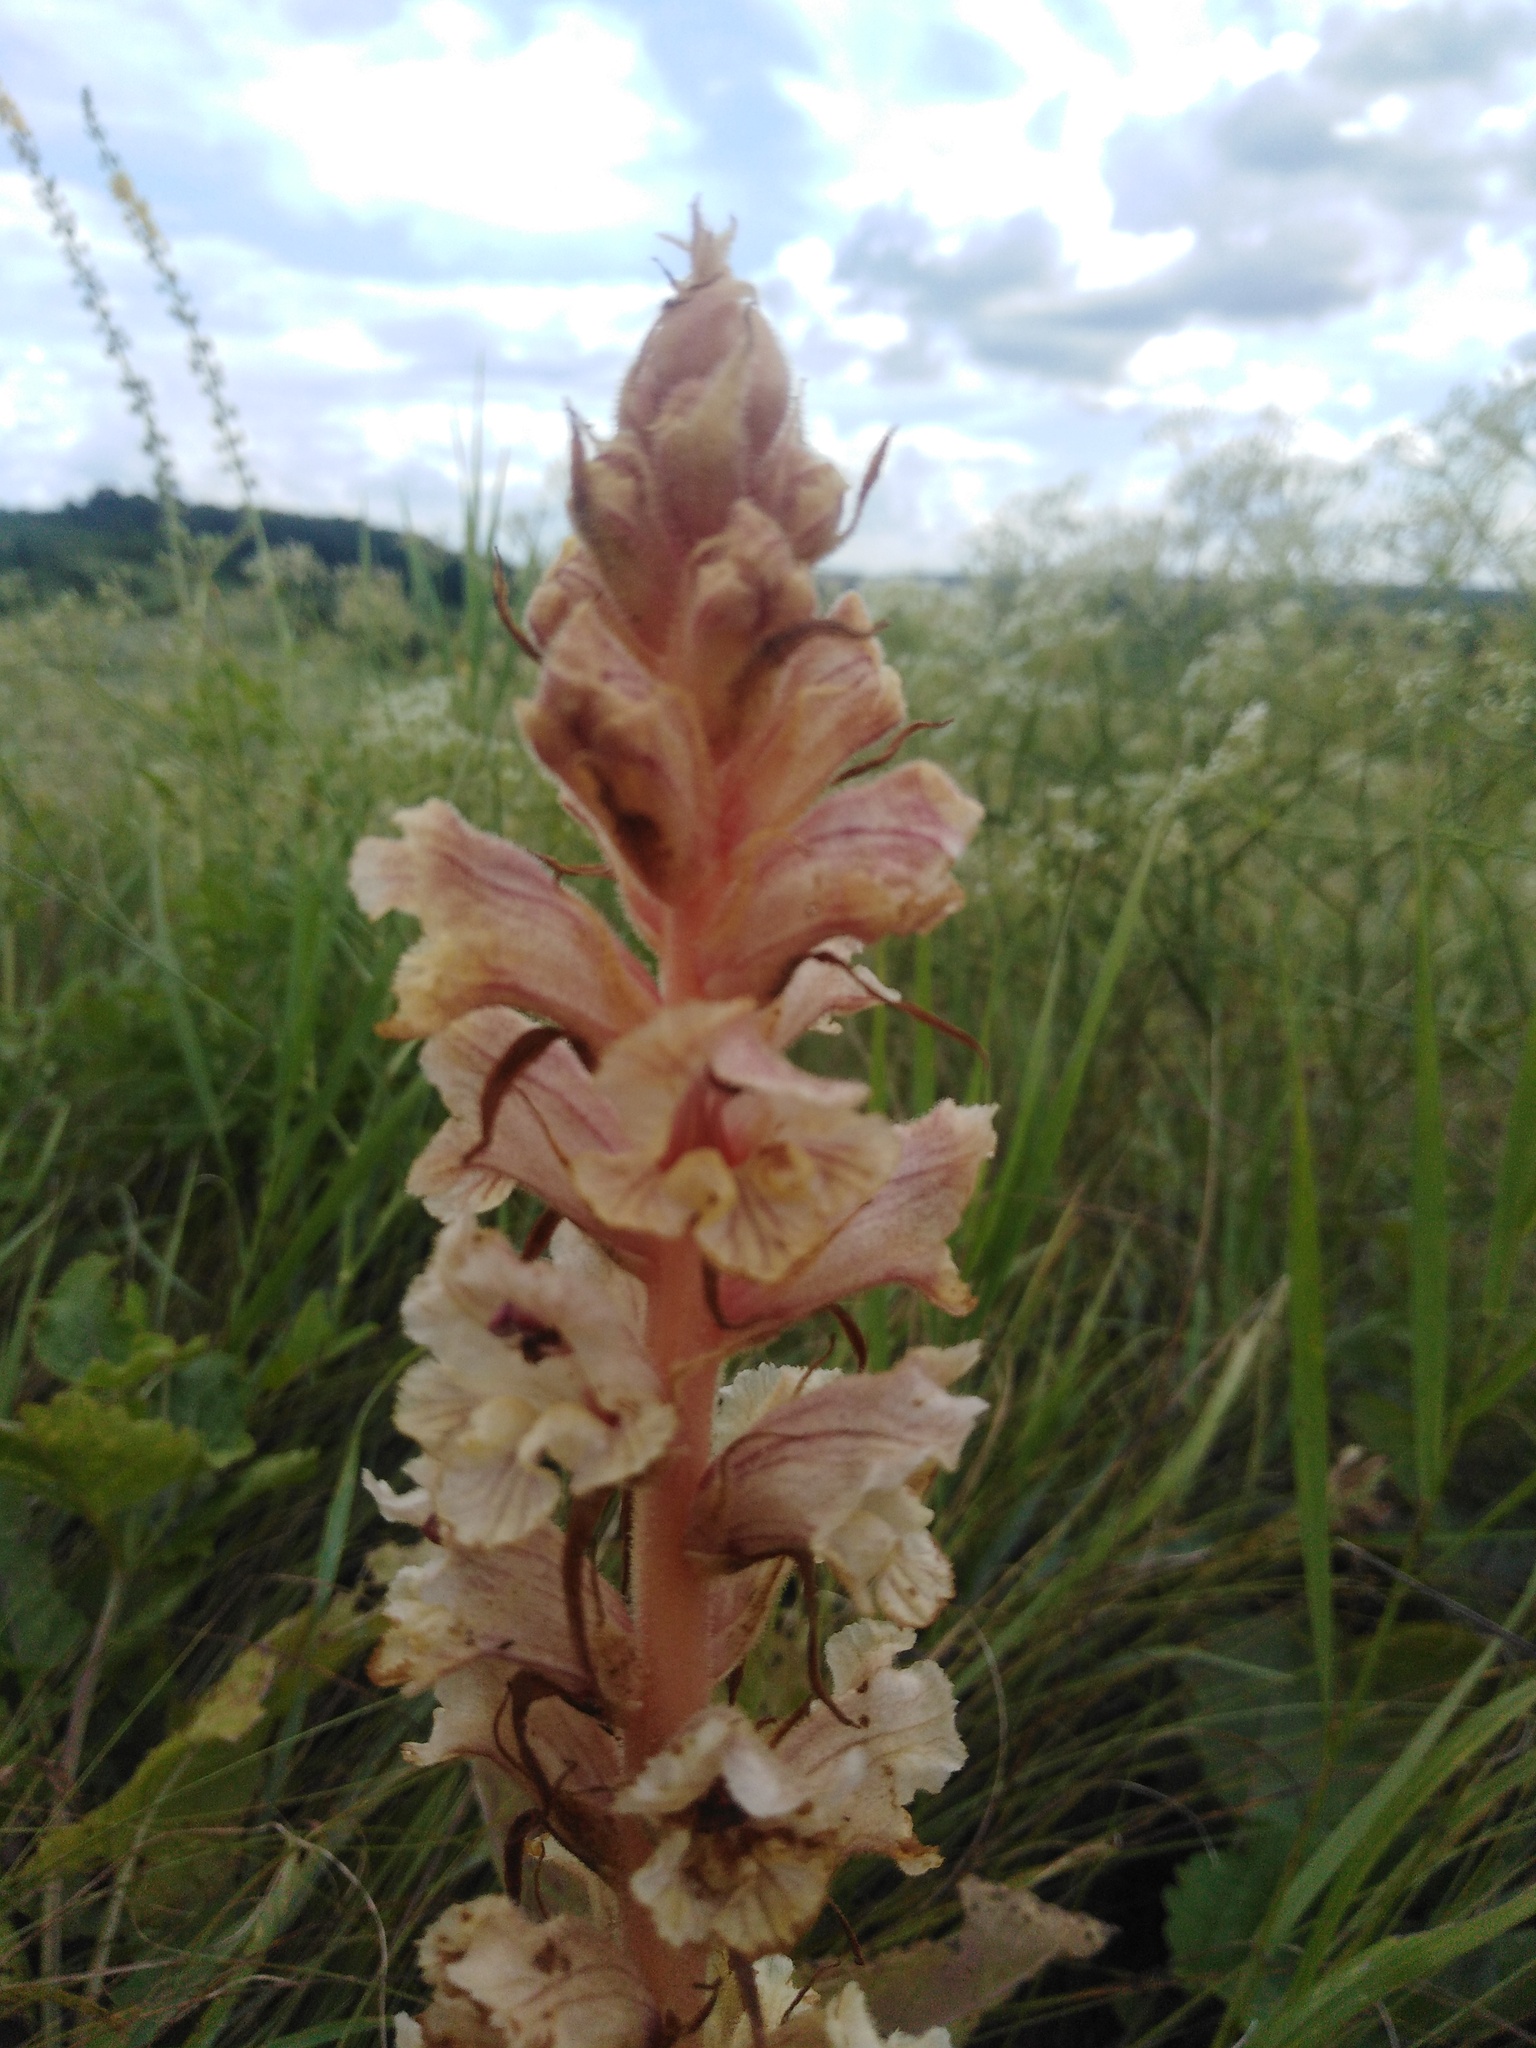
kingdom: Plantae
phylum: Tracheophyta
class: Magnoliopsida
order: Lamiales
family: Orobanchaceae
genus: Orobanche
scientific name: Orobanche alba
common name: Thyme broomrape
